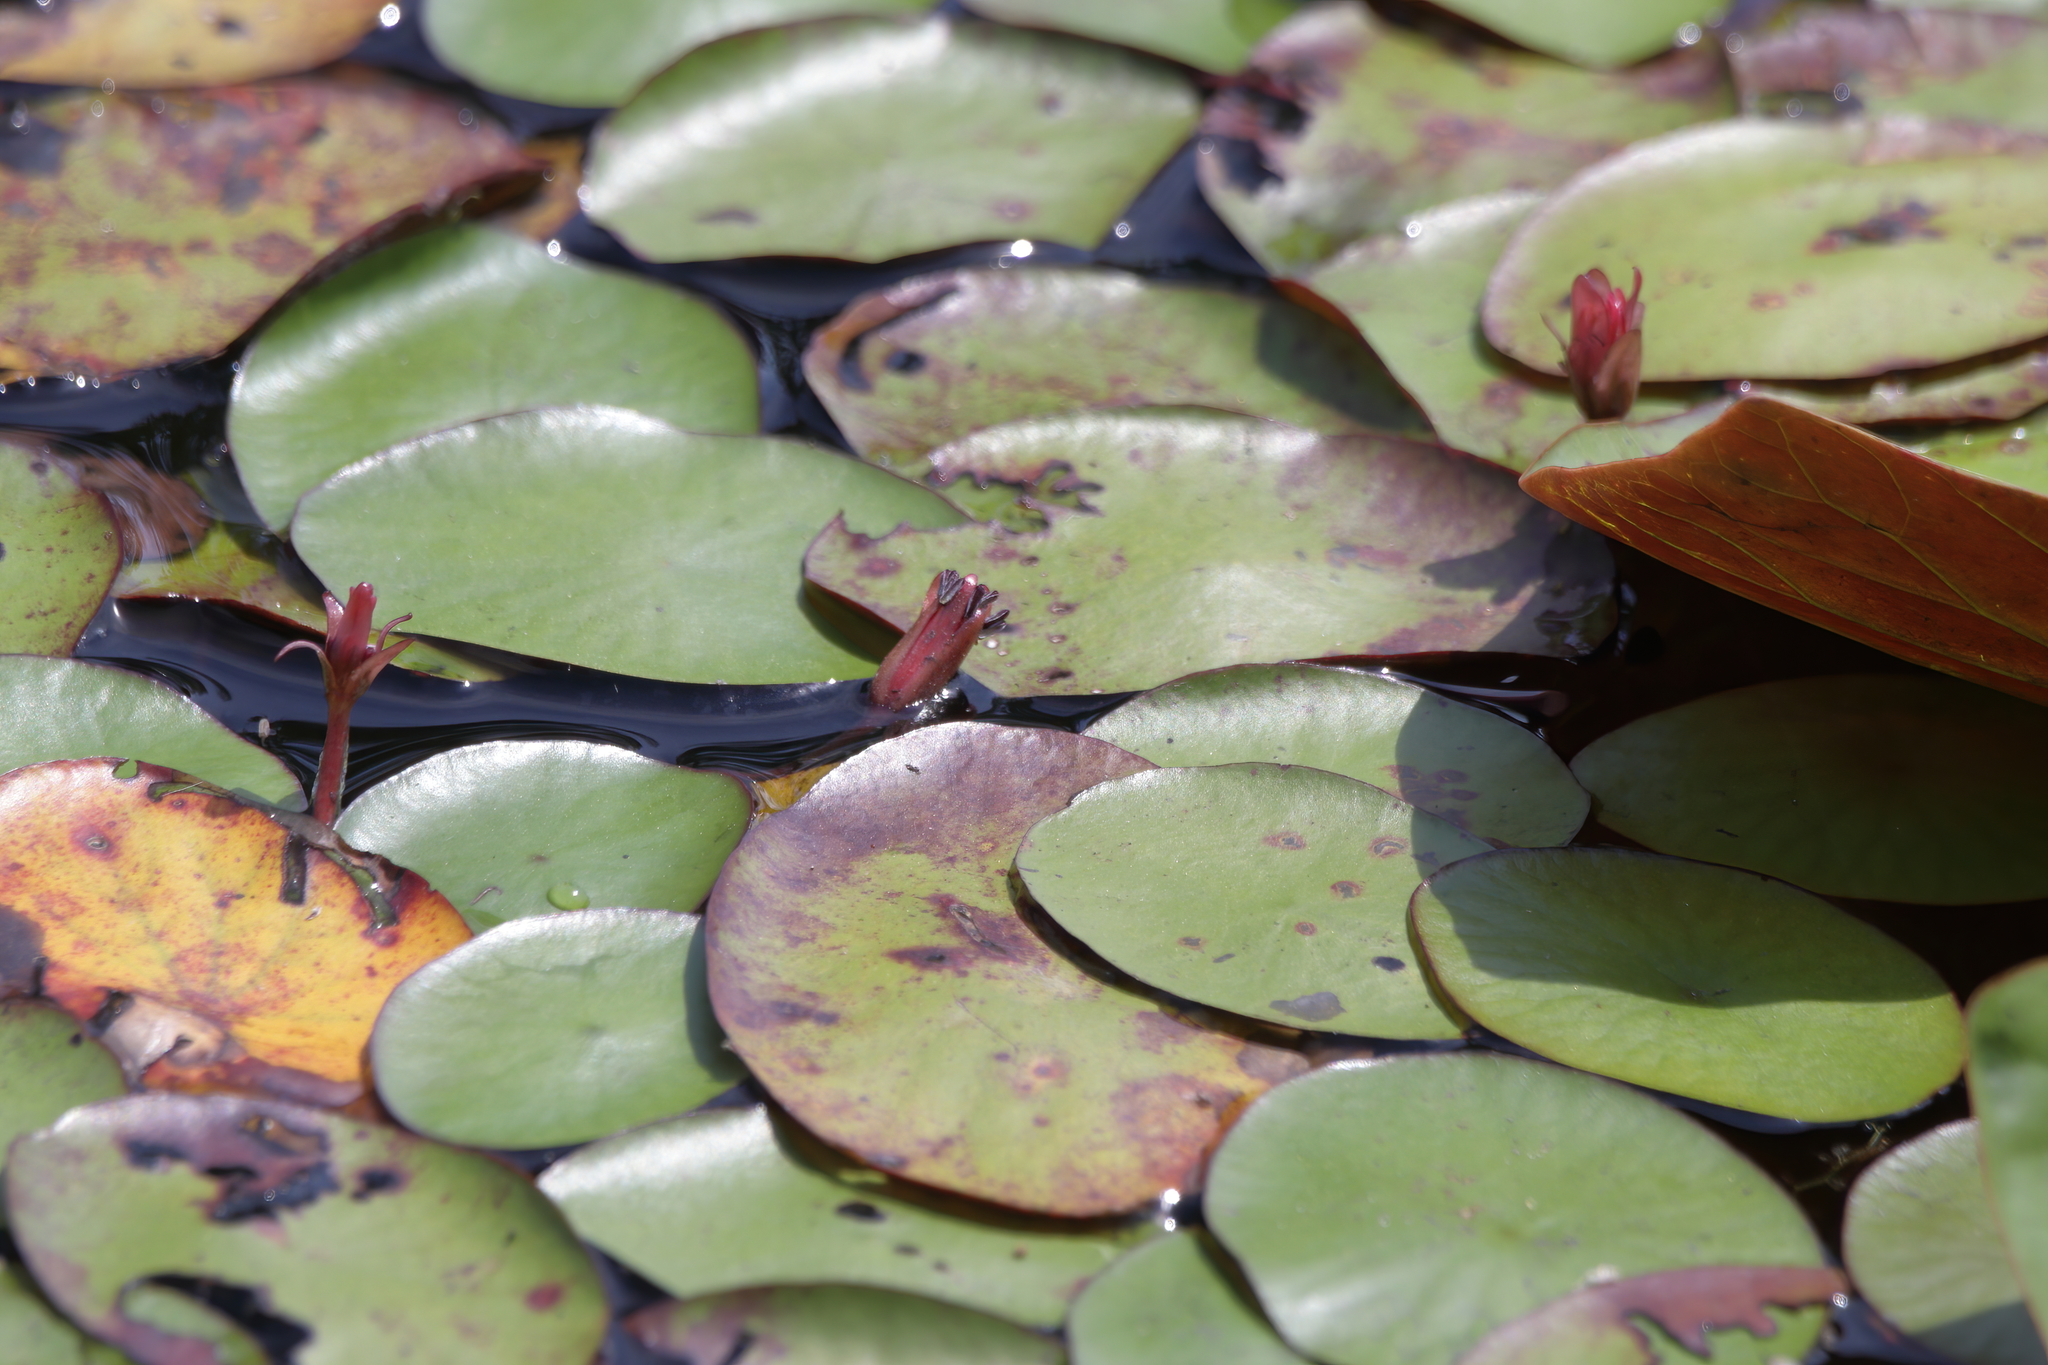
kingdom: Plantae
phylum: Tracheophyta
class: Magnoliopsida
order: Nymphaeales
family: Cabombaceae
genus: Brasenia
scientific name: Brasenia schreberi
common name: Water-shield
